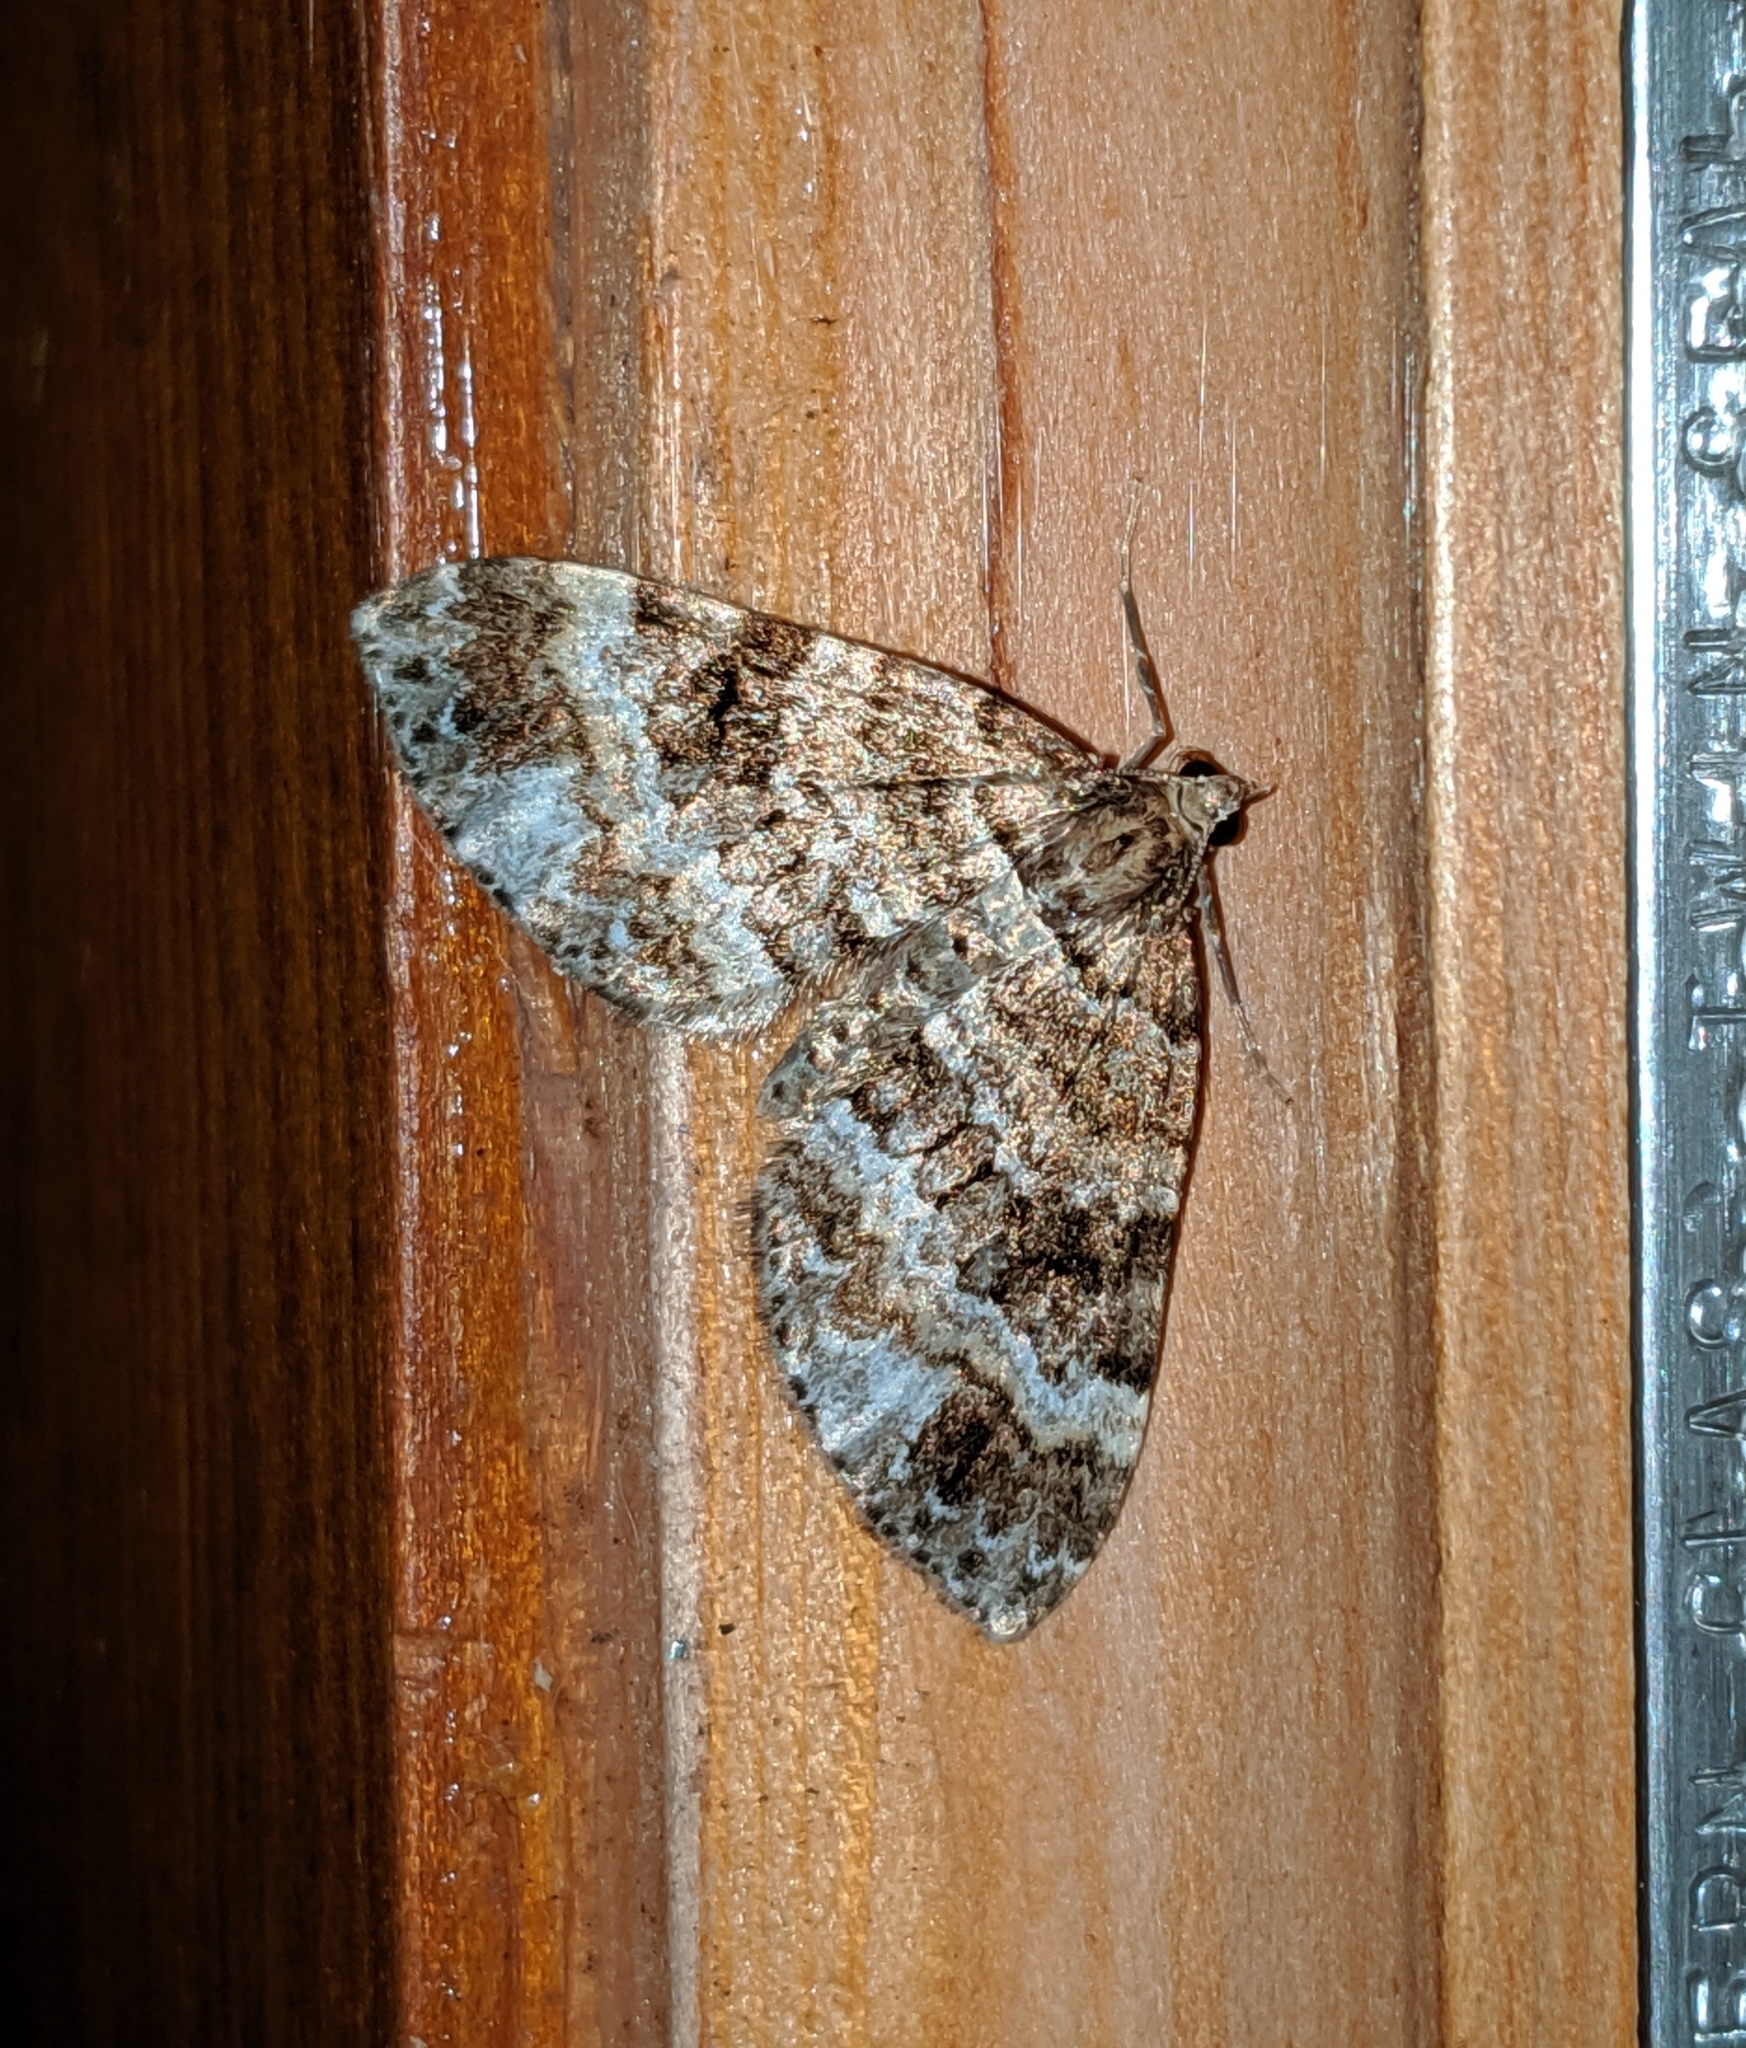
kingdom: Animalia
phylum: Arthropoda
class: Insecta
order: Lepidoptera
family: Geometridae
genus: Martania
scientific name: Martania
